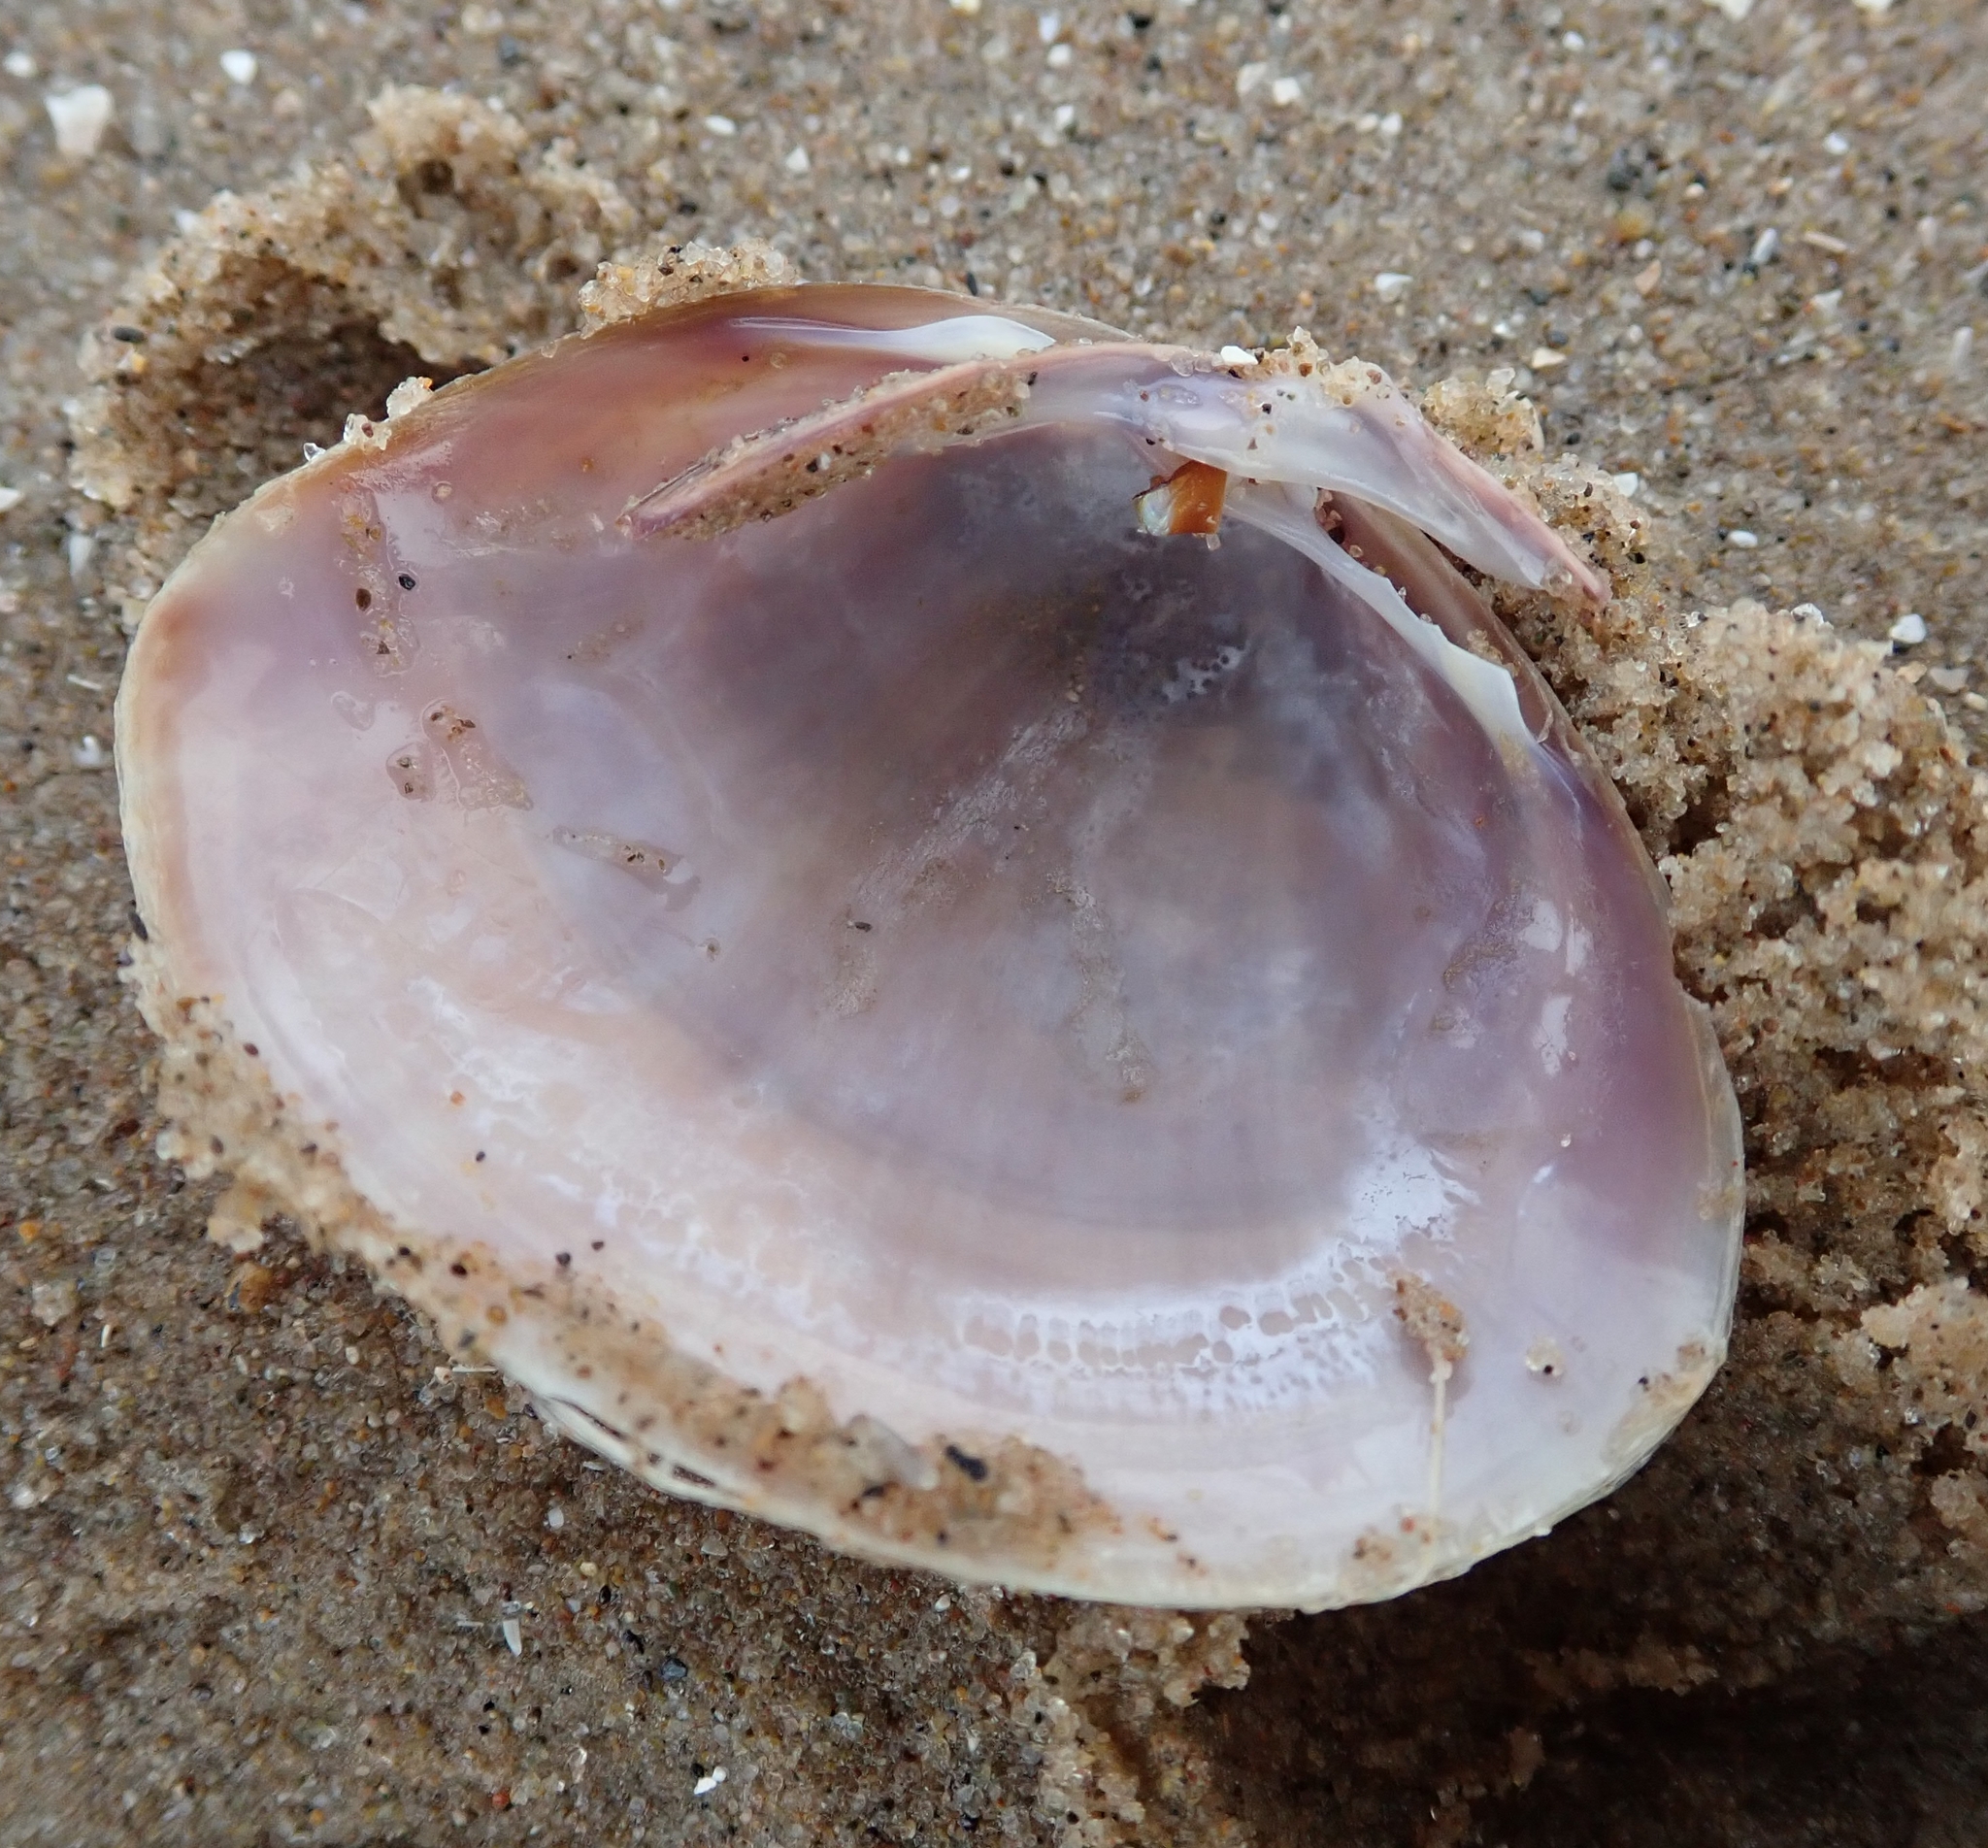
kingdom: Animalia
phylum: Mollusca
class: Bivalvia
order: Venerida
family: Mactridae
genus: Mactra
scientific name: Mactra stultorum
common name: Rayed trough shell
